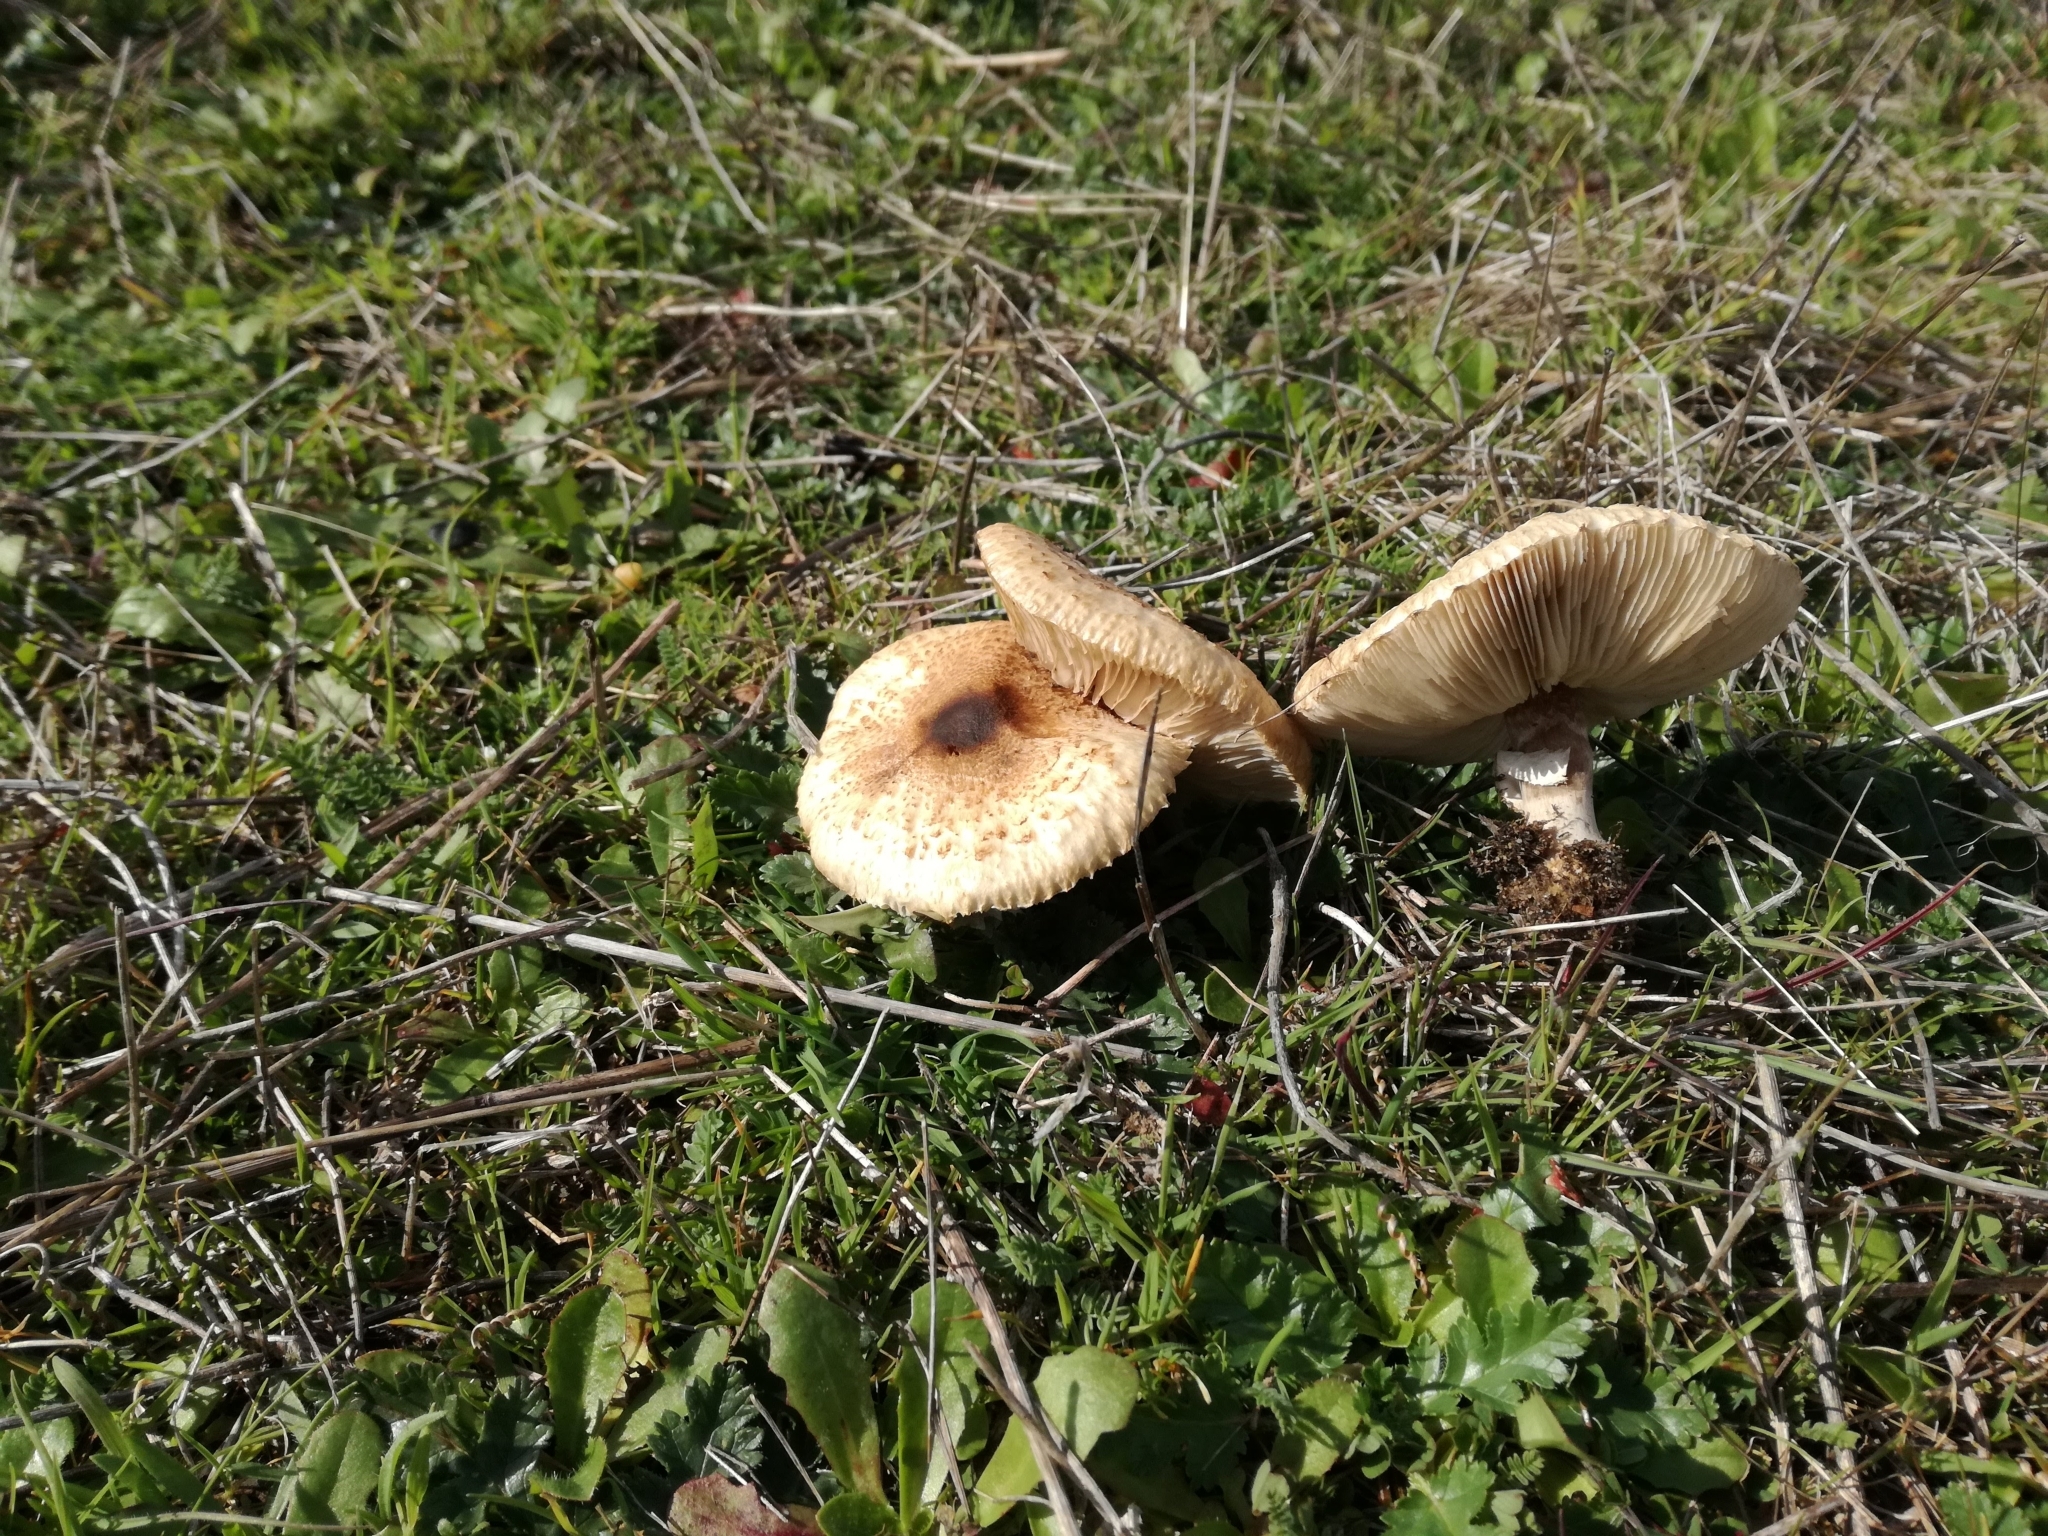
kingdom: Fungi
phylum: Basidiomycota
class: Agaricomycetes
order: Agaricales
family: Agaricaceae
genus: Lepiota
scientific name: Lepiota phaeodisca
